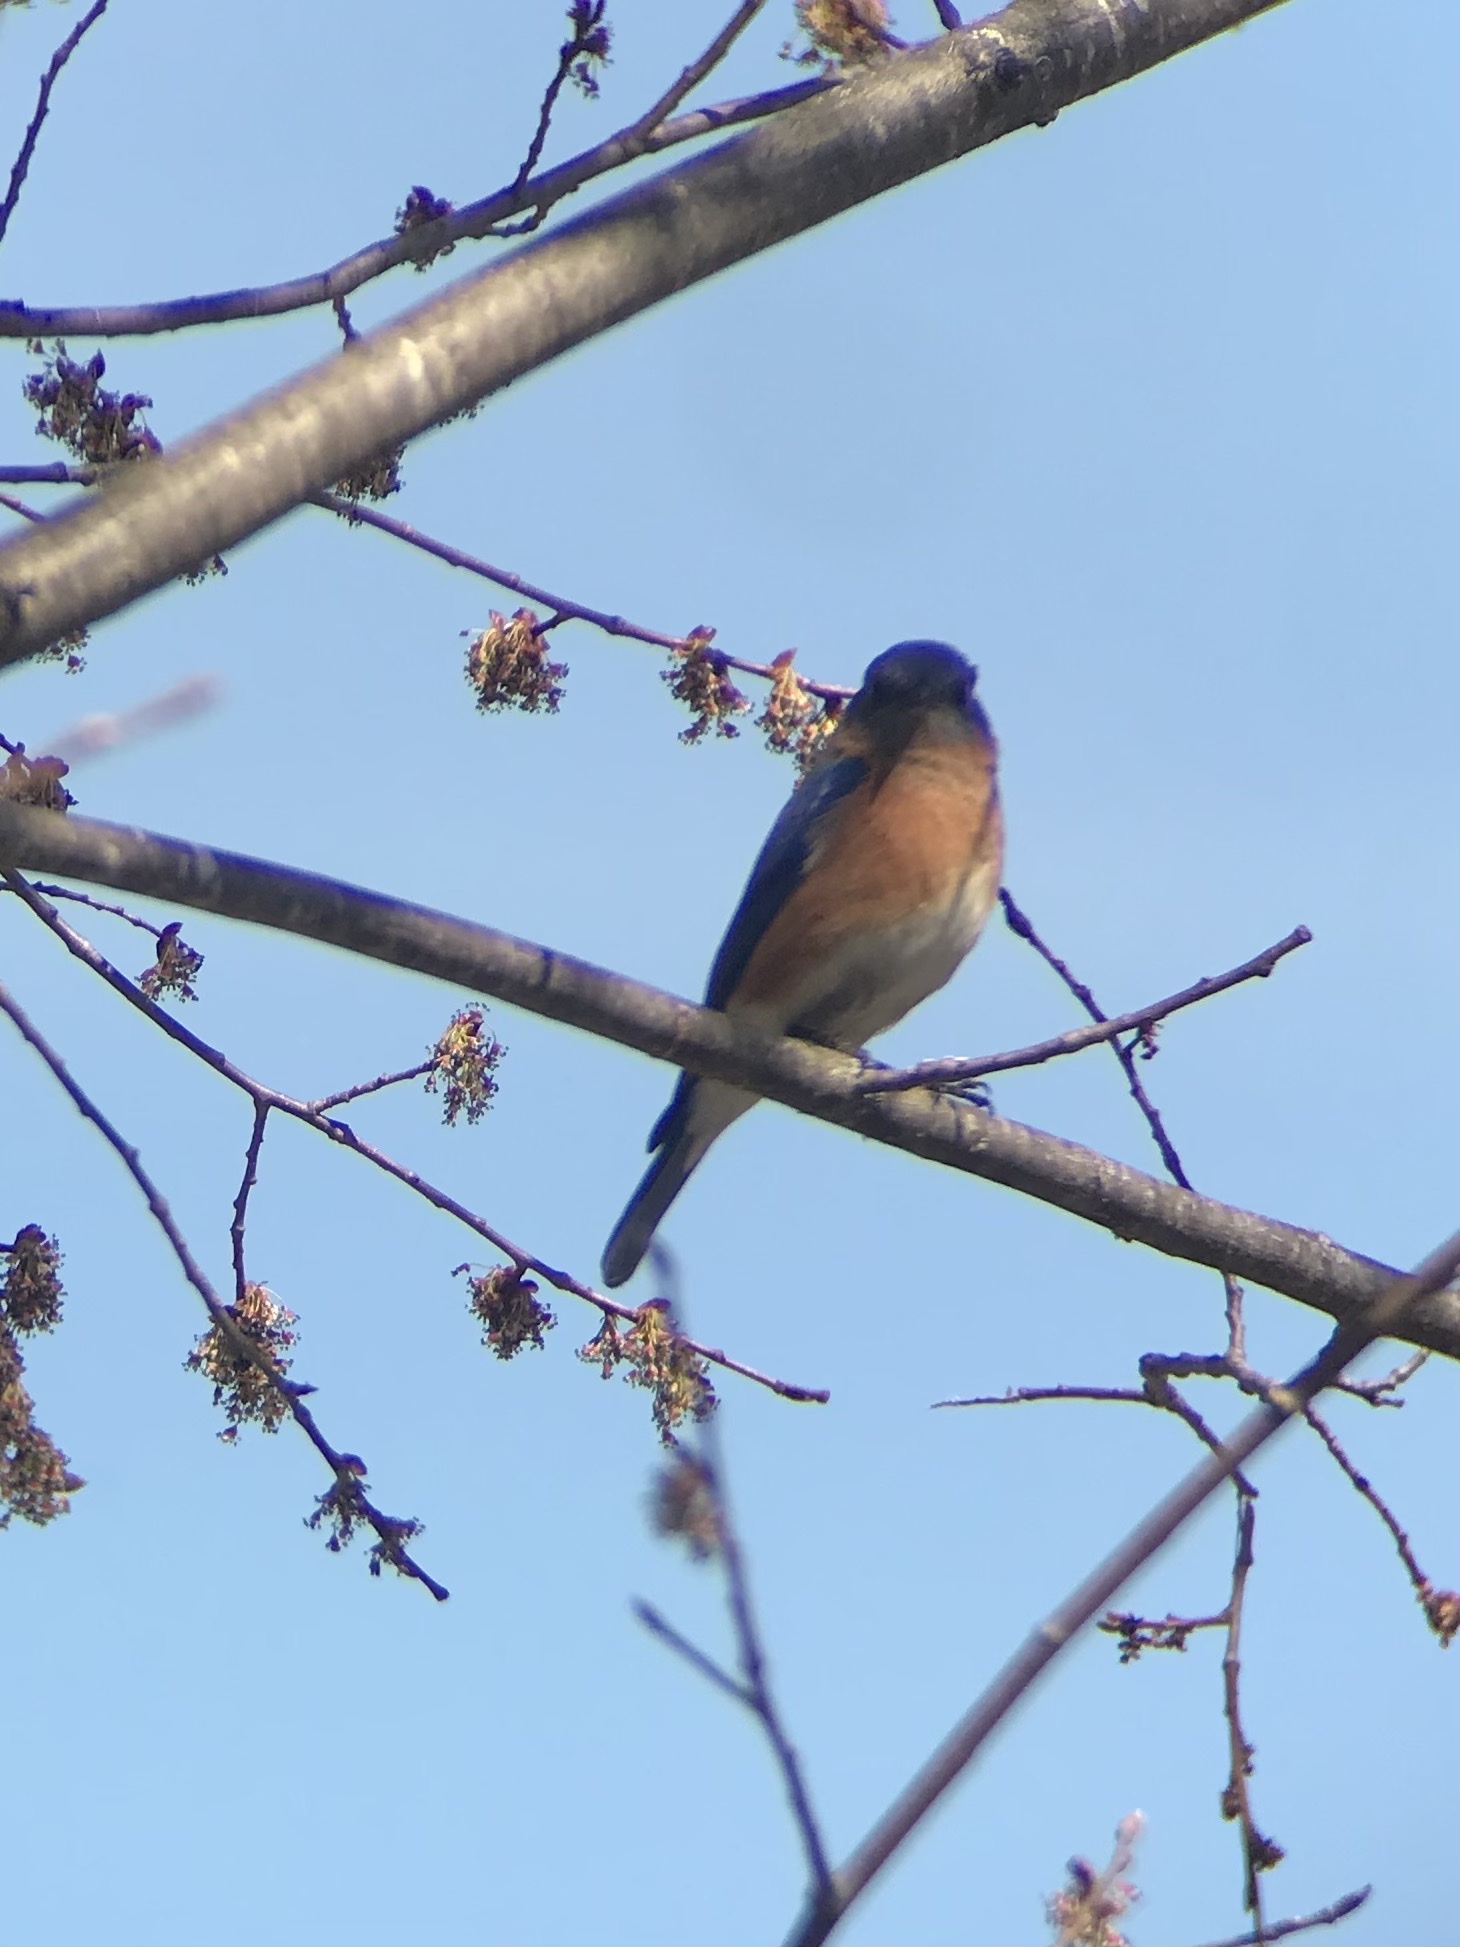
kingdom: Animalia
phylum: Chordata
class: Aves
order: Passeriformes
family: Turdidae
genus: Sialia
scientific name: Sialia sialis
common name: Eastern bluebird
